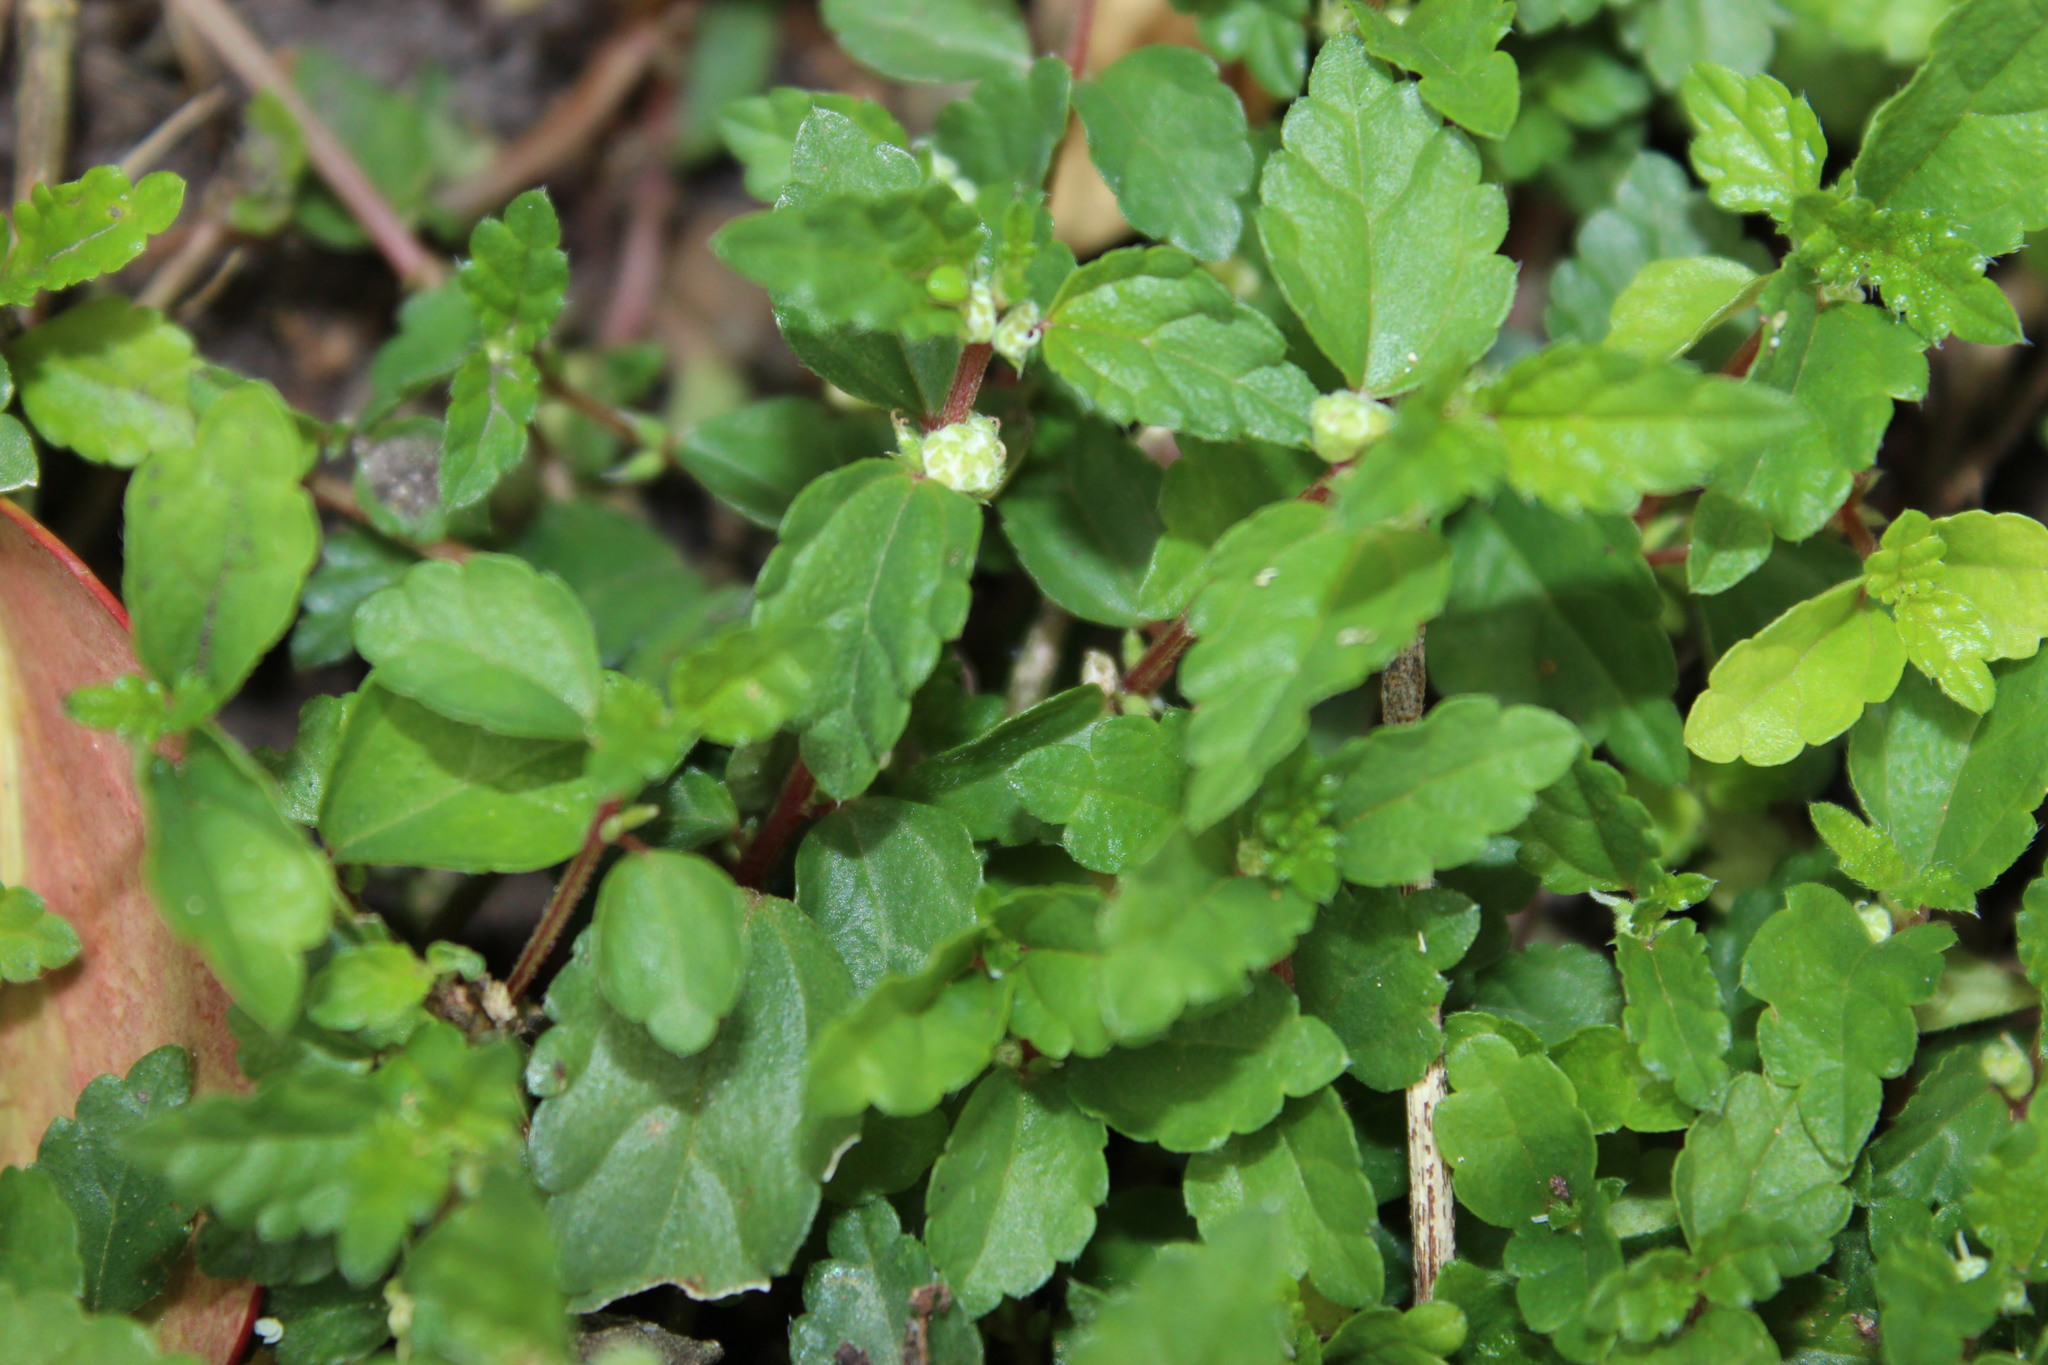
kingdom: Plantae
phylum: Tracheophyta
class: Magnoliopsida
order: Rosales
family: Urticaceae
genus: Droguetia
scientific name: Droguetia iners
